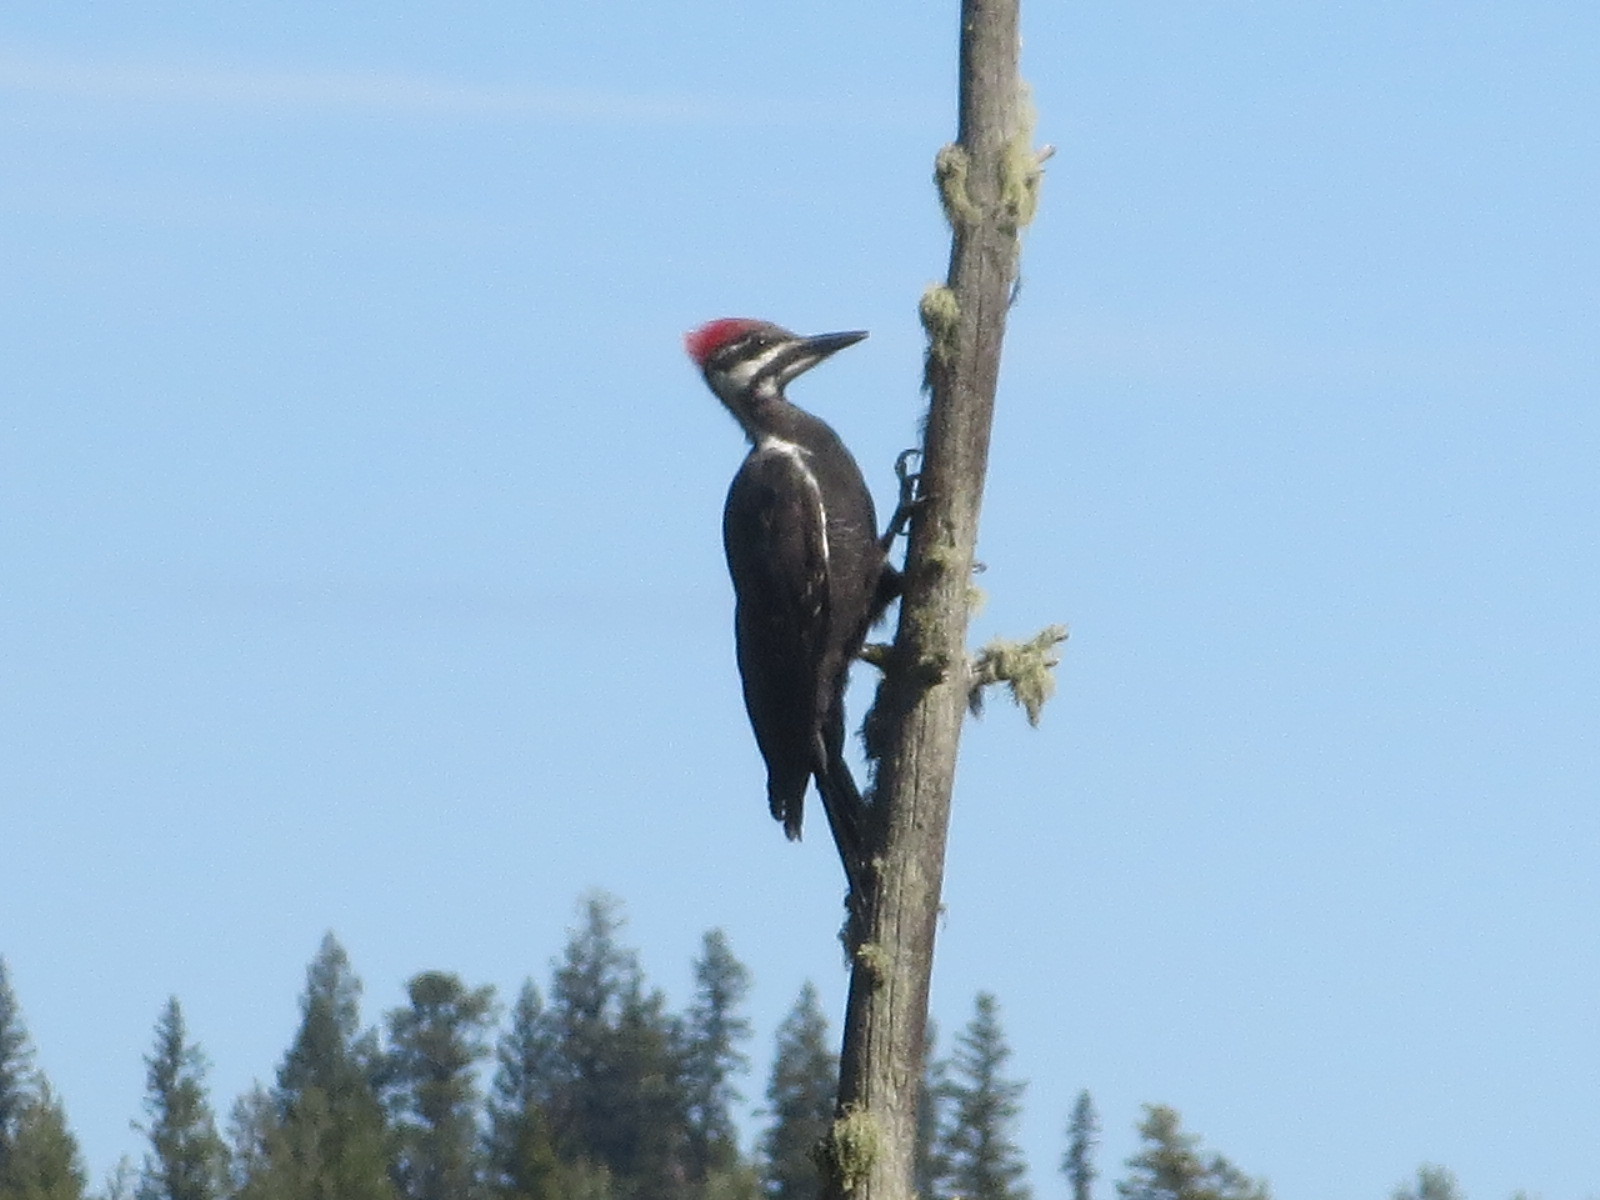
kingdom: Animalia
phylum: Chordata
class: Aves
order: Piciformes
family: Picidae
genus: Dryocopus
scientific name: Dryocopus pileatus
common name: Pileated woodpecker
